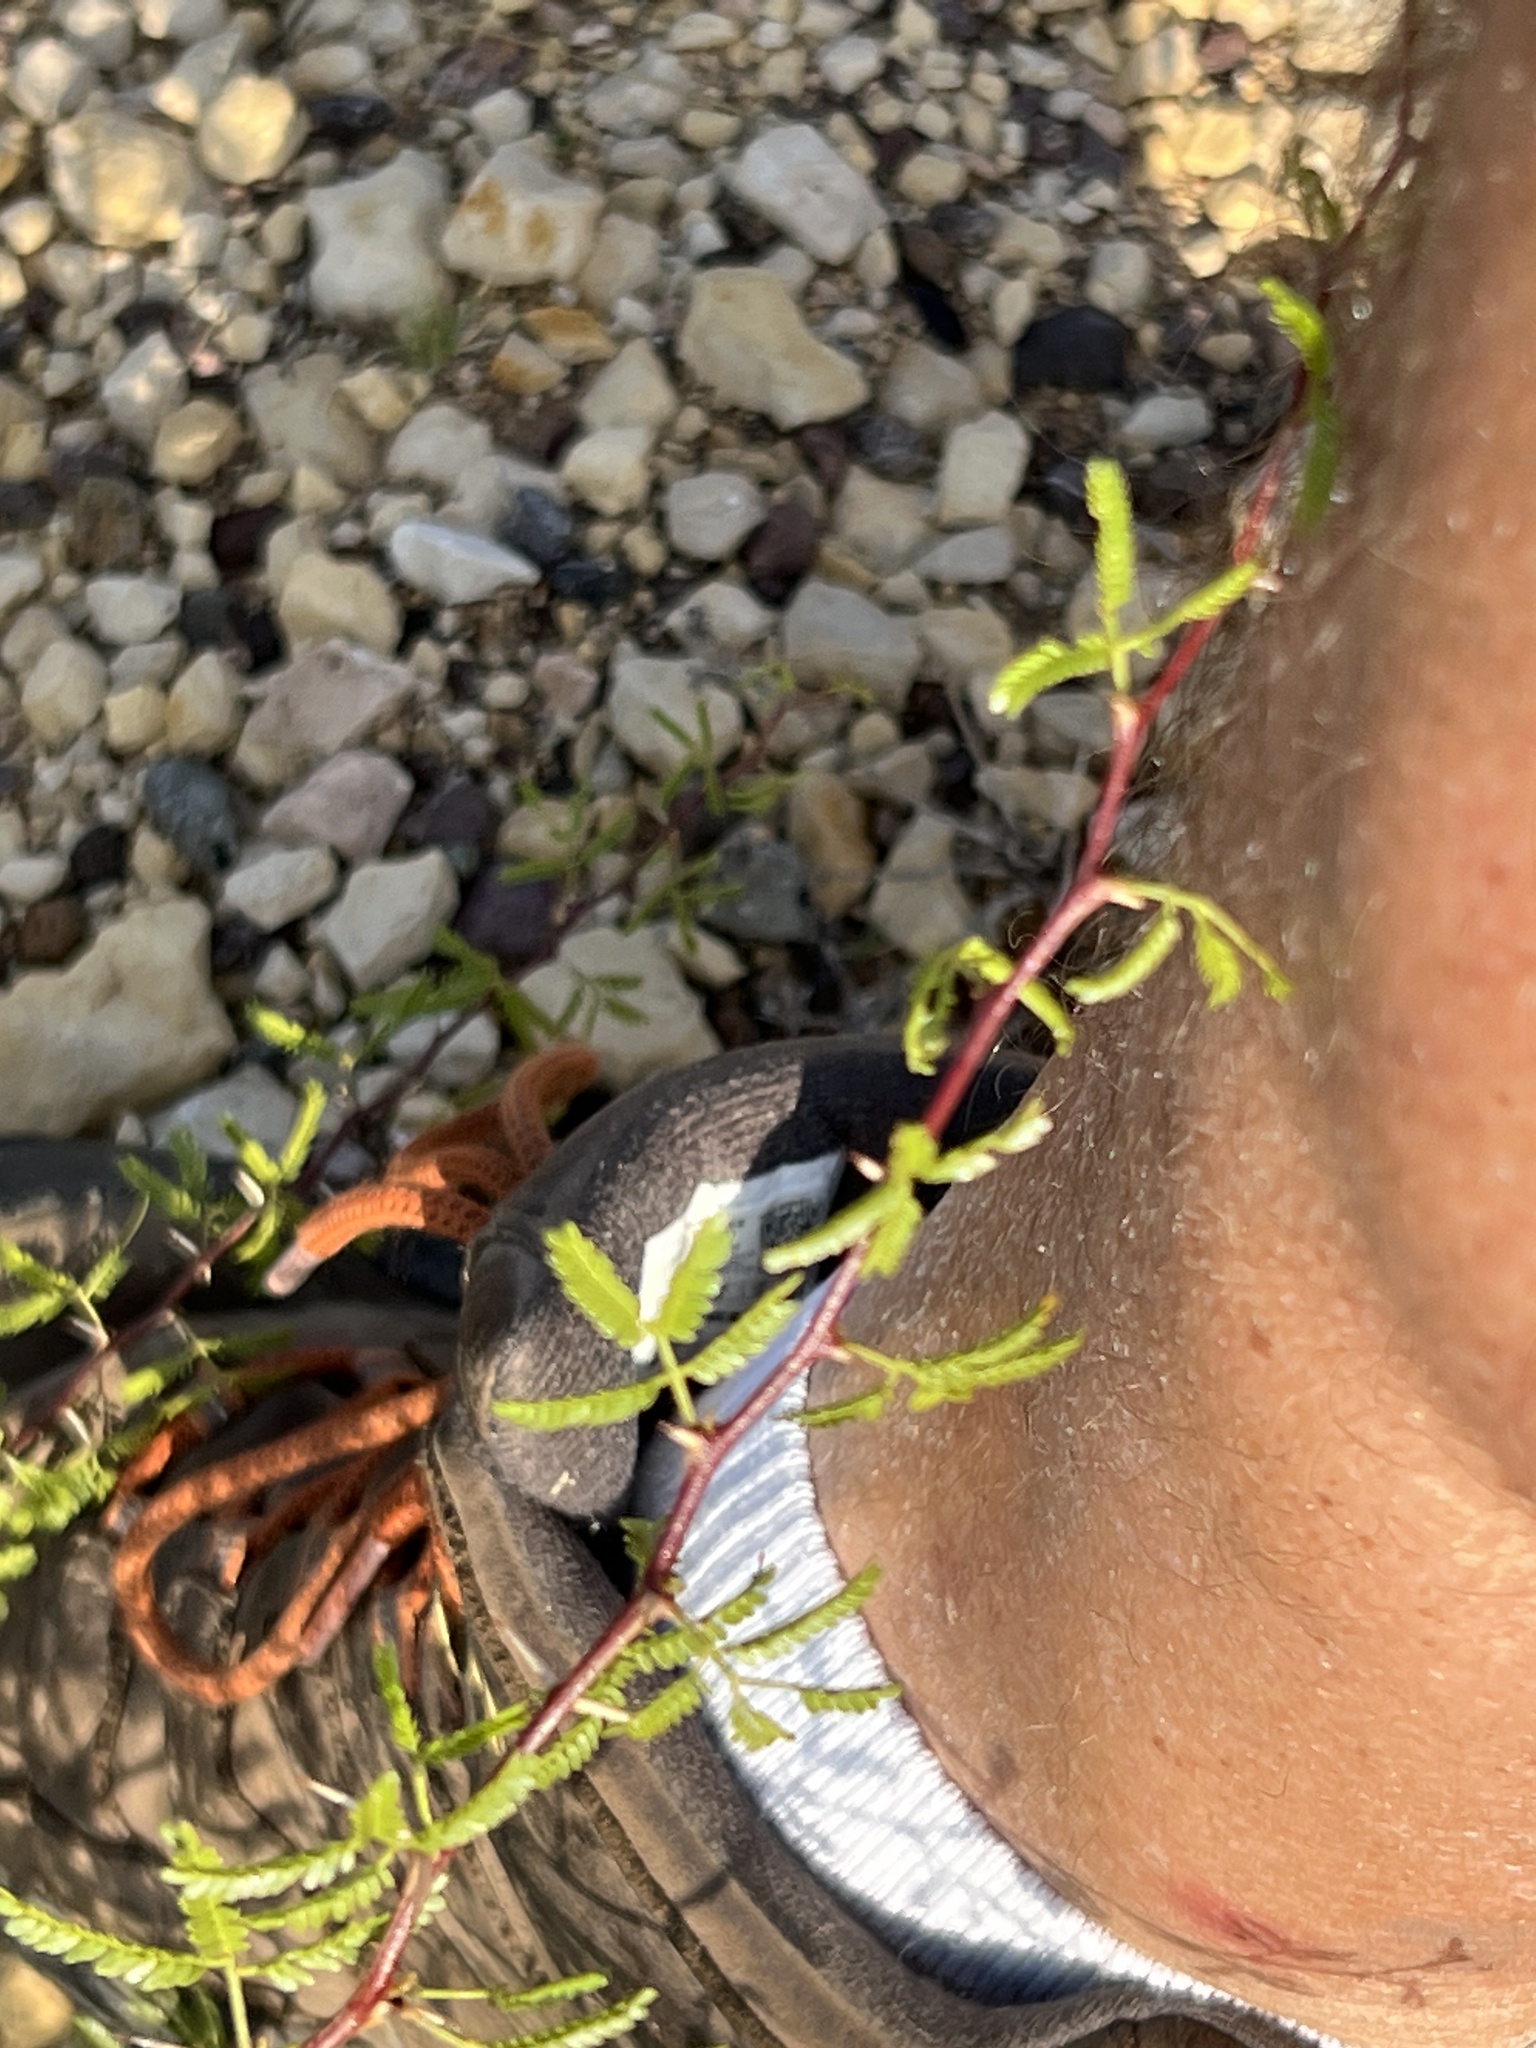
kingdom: Plantae
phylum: Tracheophyta
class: Magnoliopsida
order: Fabales
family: Fabaceae
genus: Vachellia
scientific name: Vachellia vernicosa
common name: Viscid acacia
